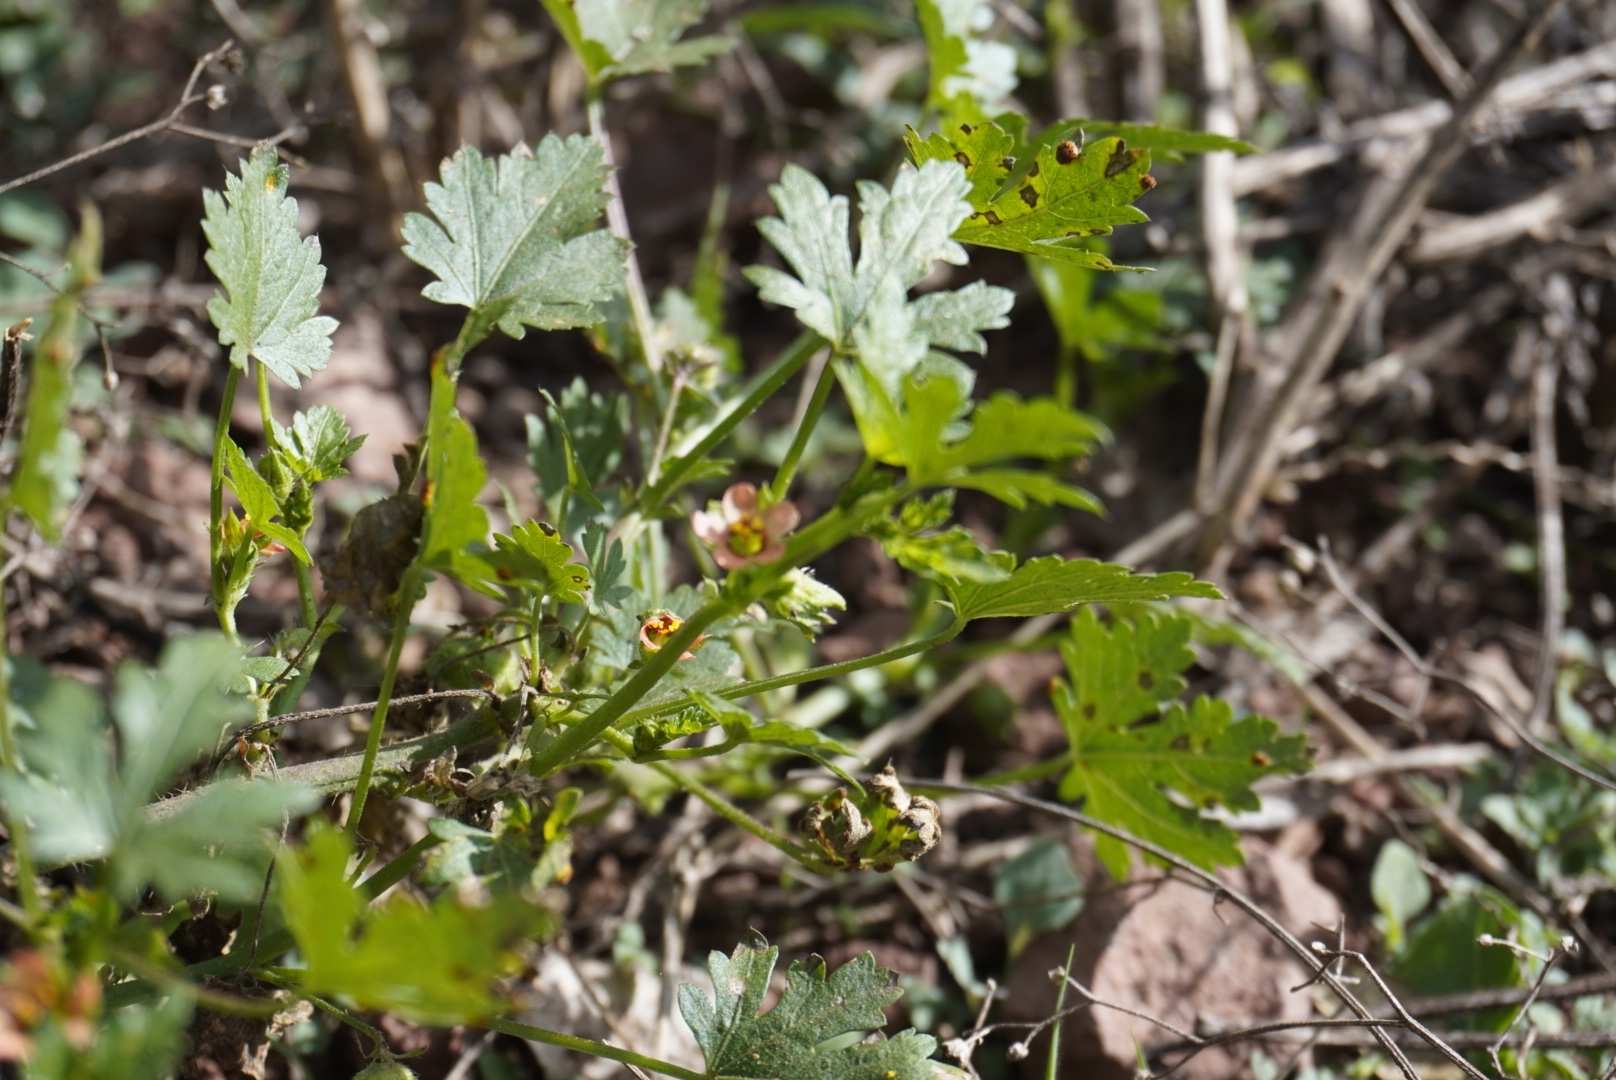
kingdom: Plantae
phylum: Tracheophyta
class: Magnoliopsida
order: Malvales
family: Malvaceae
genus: Modiola
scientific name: Modiola caroliniana
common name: Carolina bristlemallow
